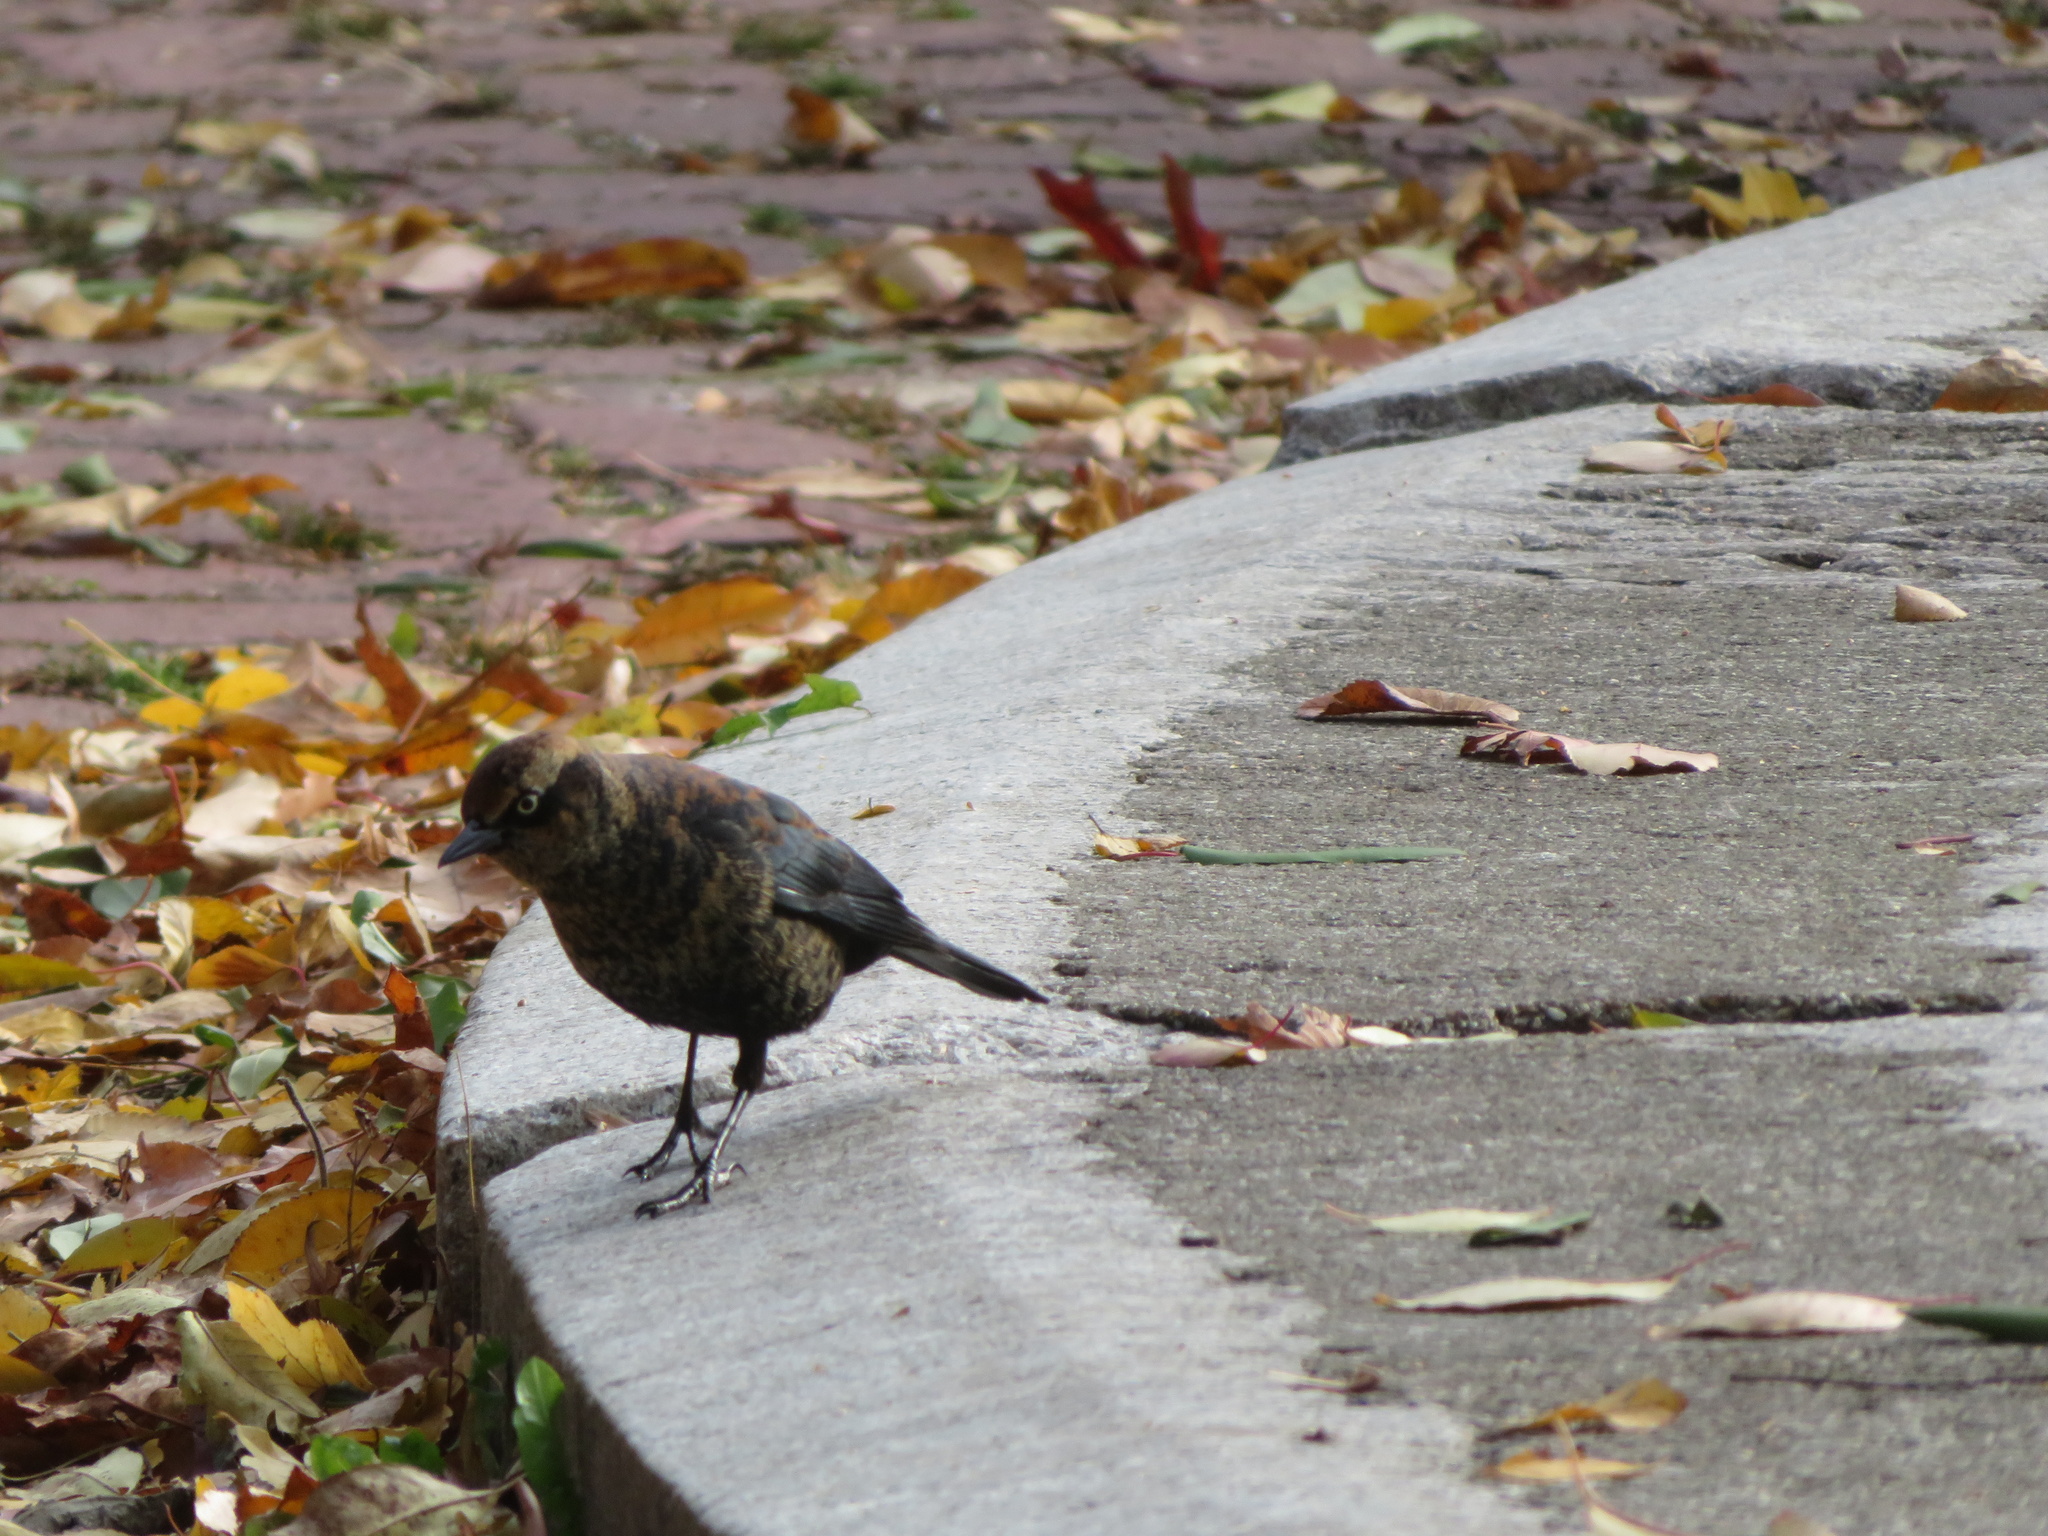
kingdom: Animalia
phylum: Chordata
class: Aves
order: Passeriformes
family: Icteridae
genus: Euphagus
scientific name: Euphagus carolinus
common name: Rusty blackbird
